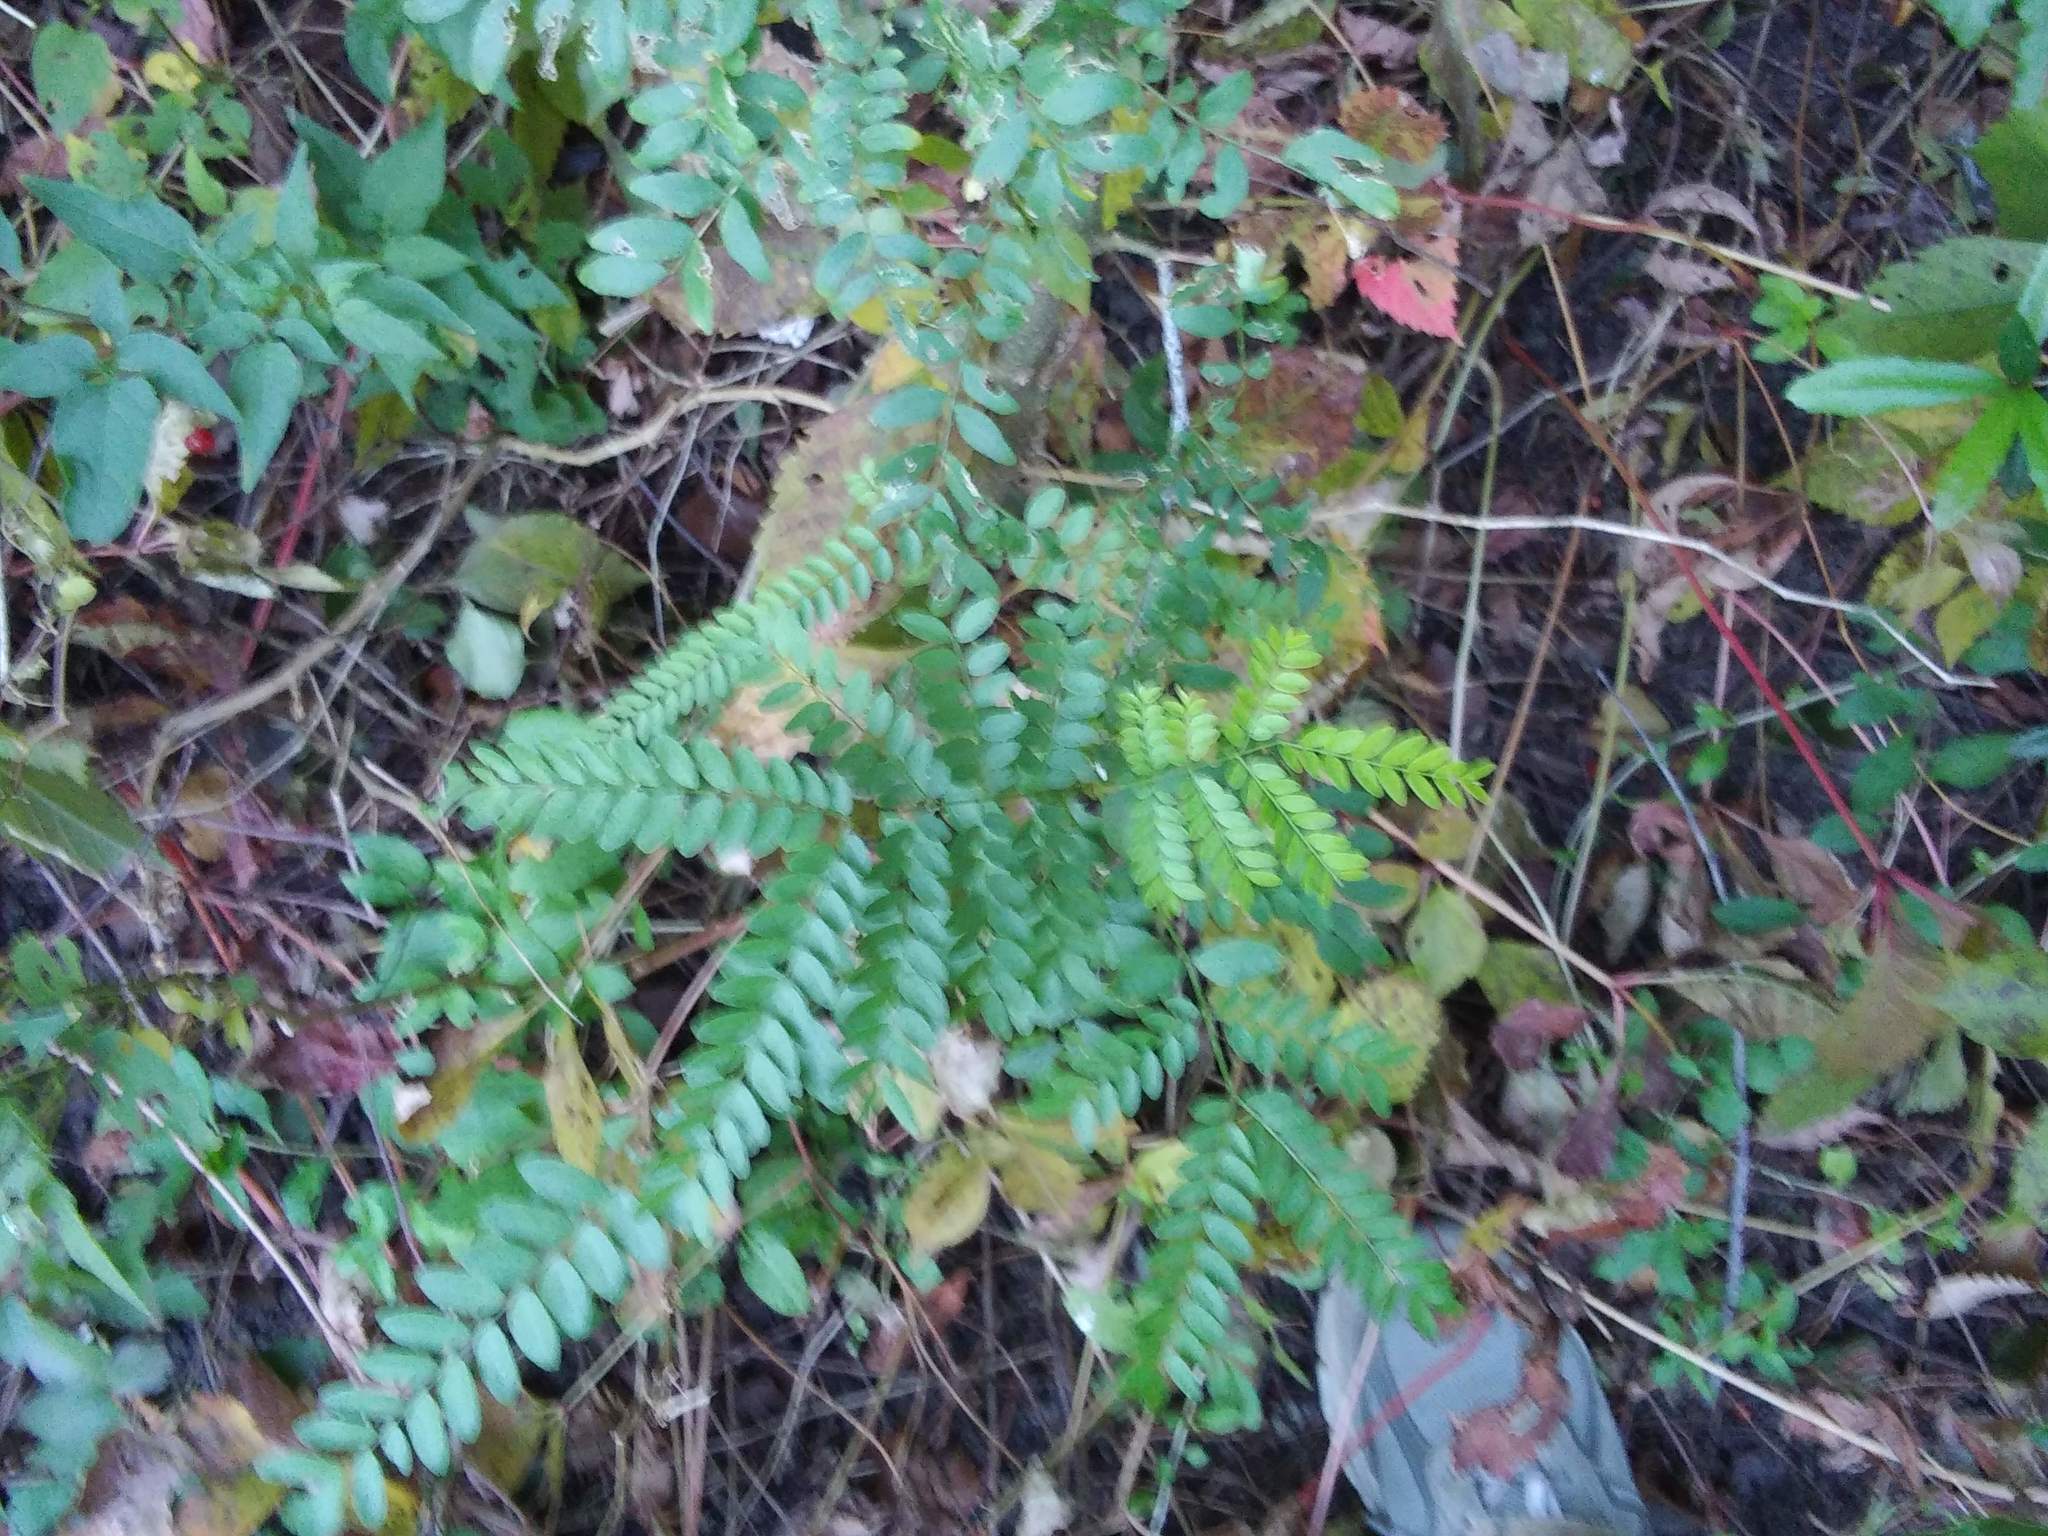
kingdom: Plantae
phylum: Tracheophyta
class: Magnoliopsida
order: Fabales
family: Fabaceae
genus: Gleditsia
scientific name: Gleditsia triacanthos
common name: Common honeylocust
